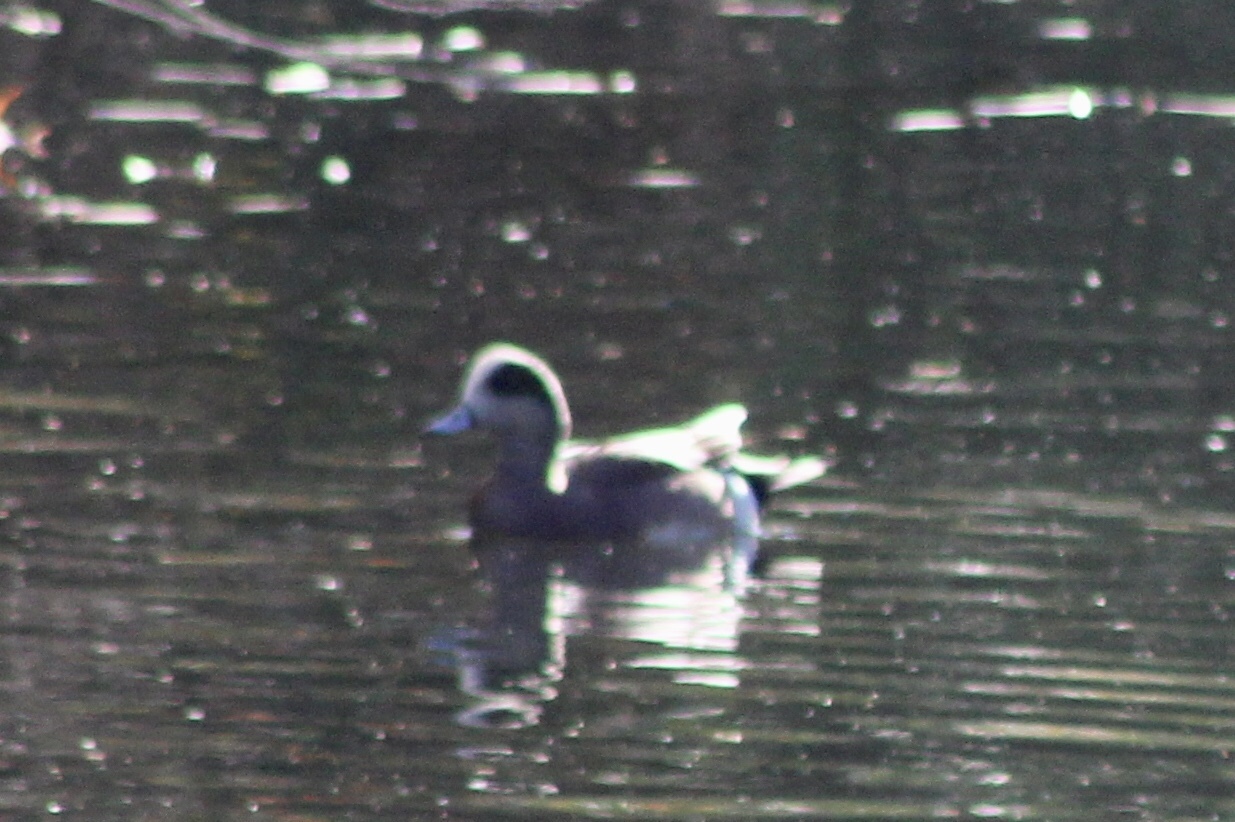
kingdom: Animalia
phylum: Chordata
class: Aves
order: Anseriformes
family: Anatidae
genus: Mareca
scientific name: Mareca americana
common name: American wigeon
